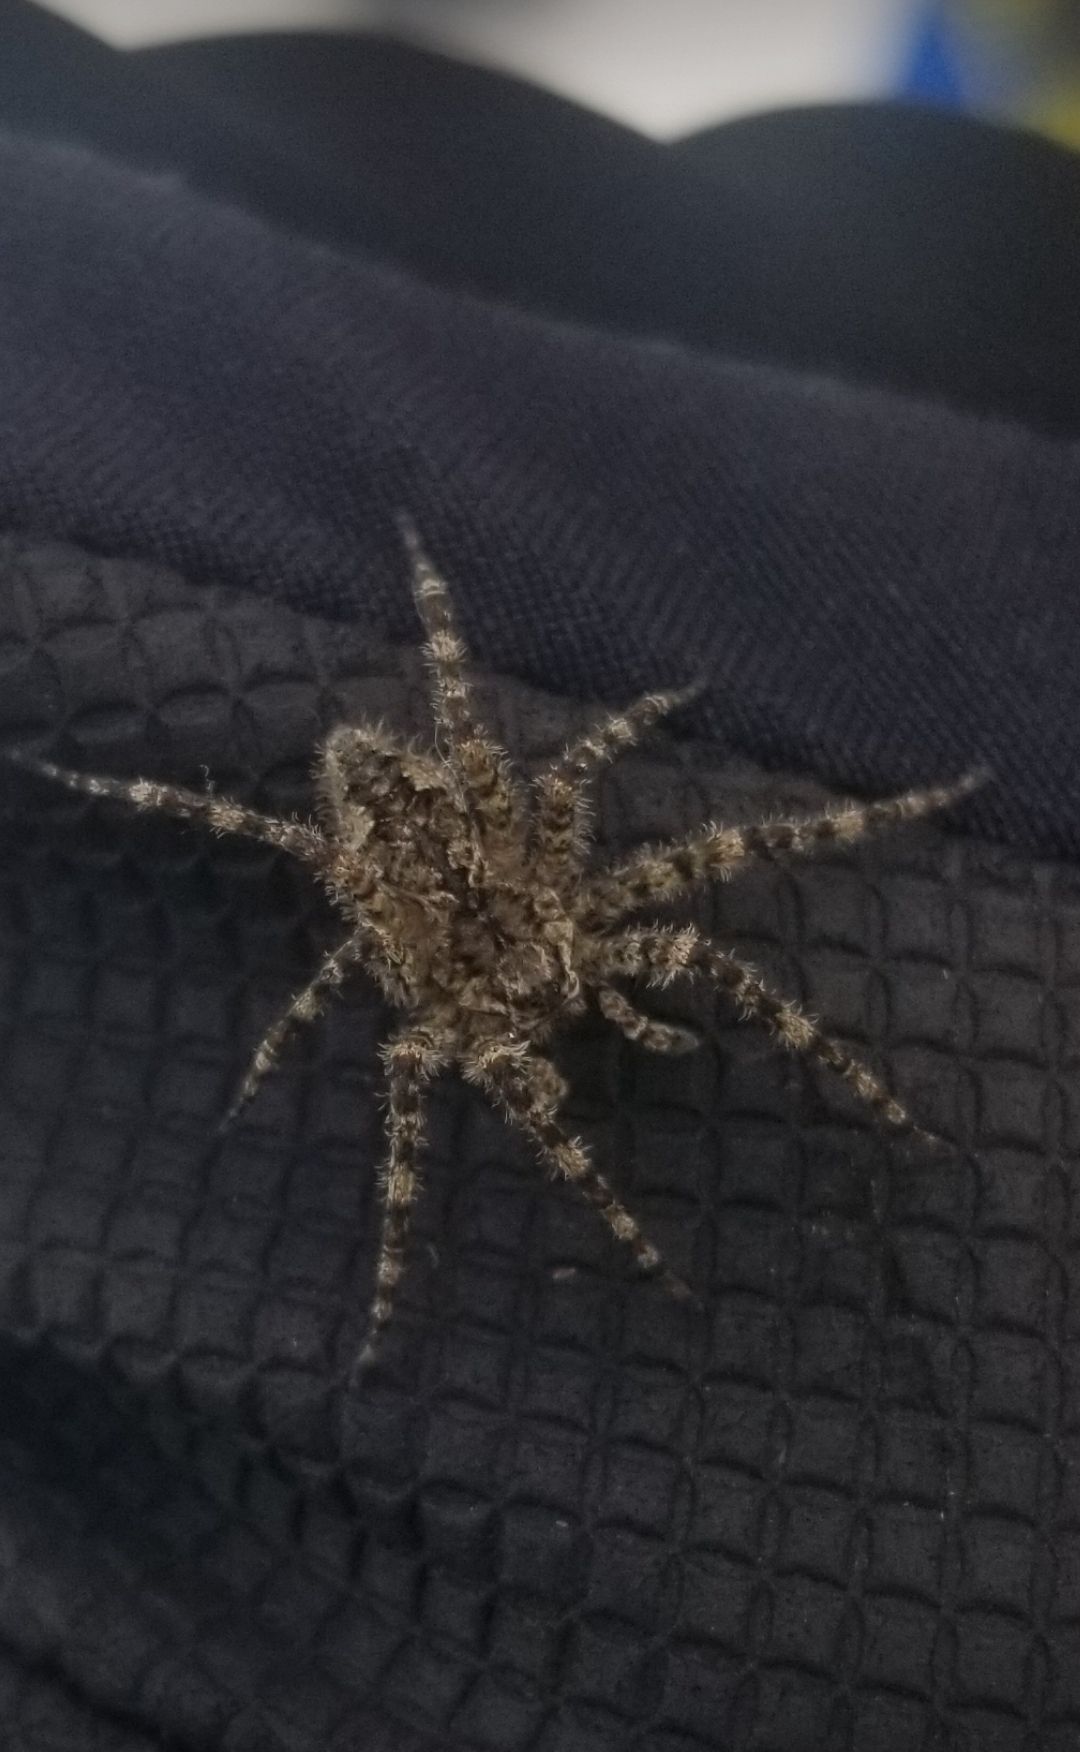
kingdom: Animalia
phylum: Arthropoda
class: Arachnida
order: Araneae
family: Pisauridae
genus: Dolomedes
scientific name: Dolomedes albineus
